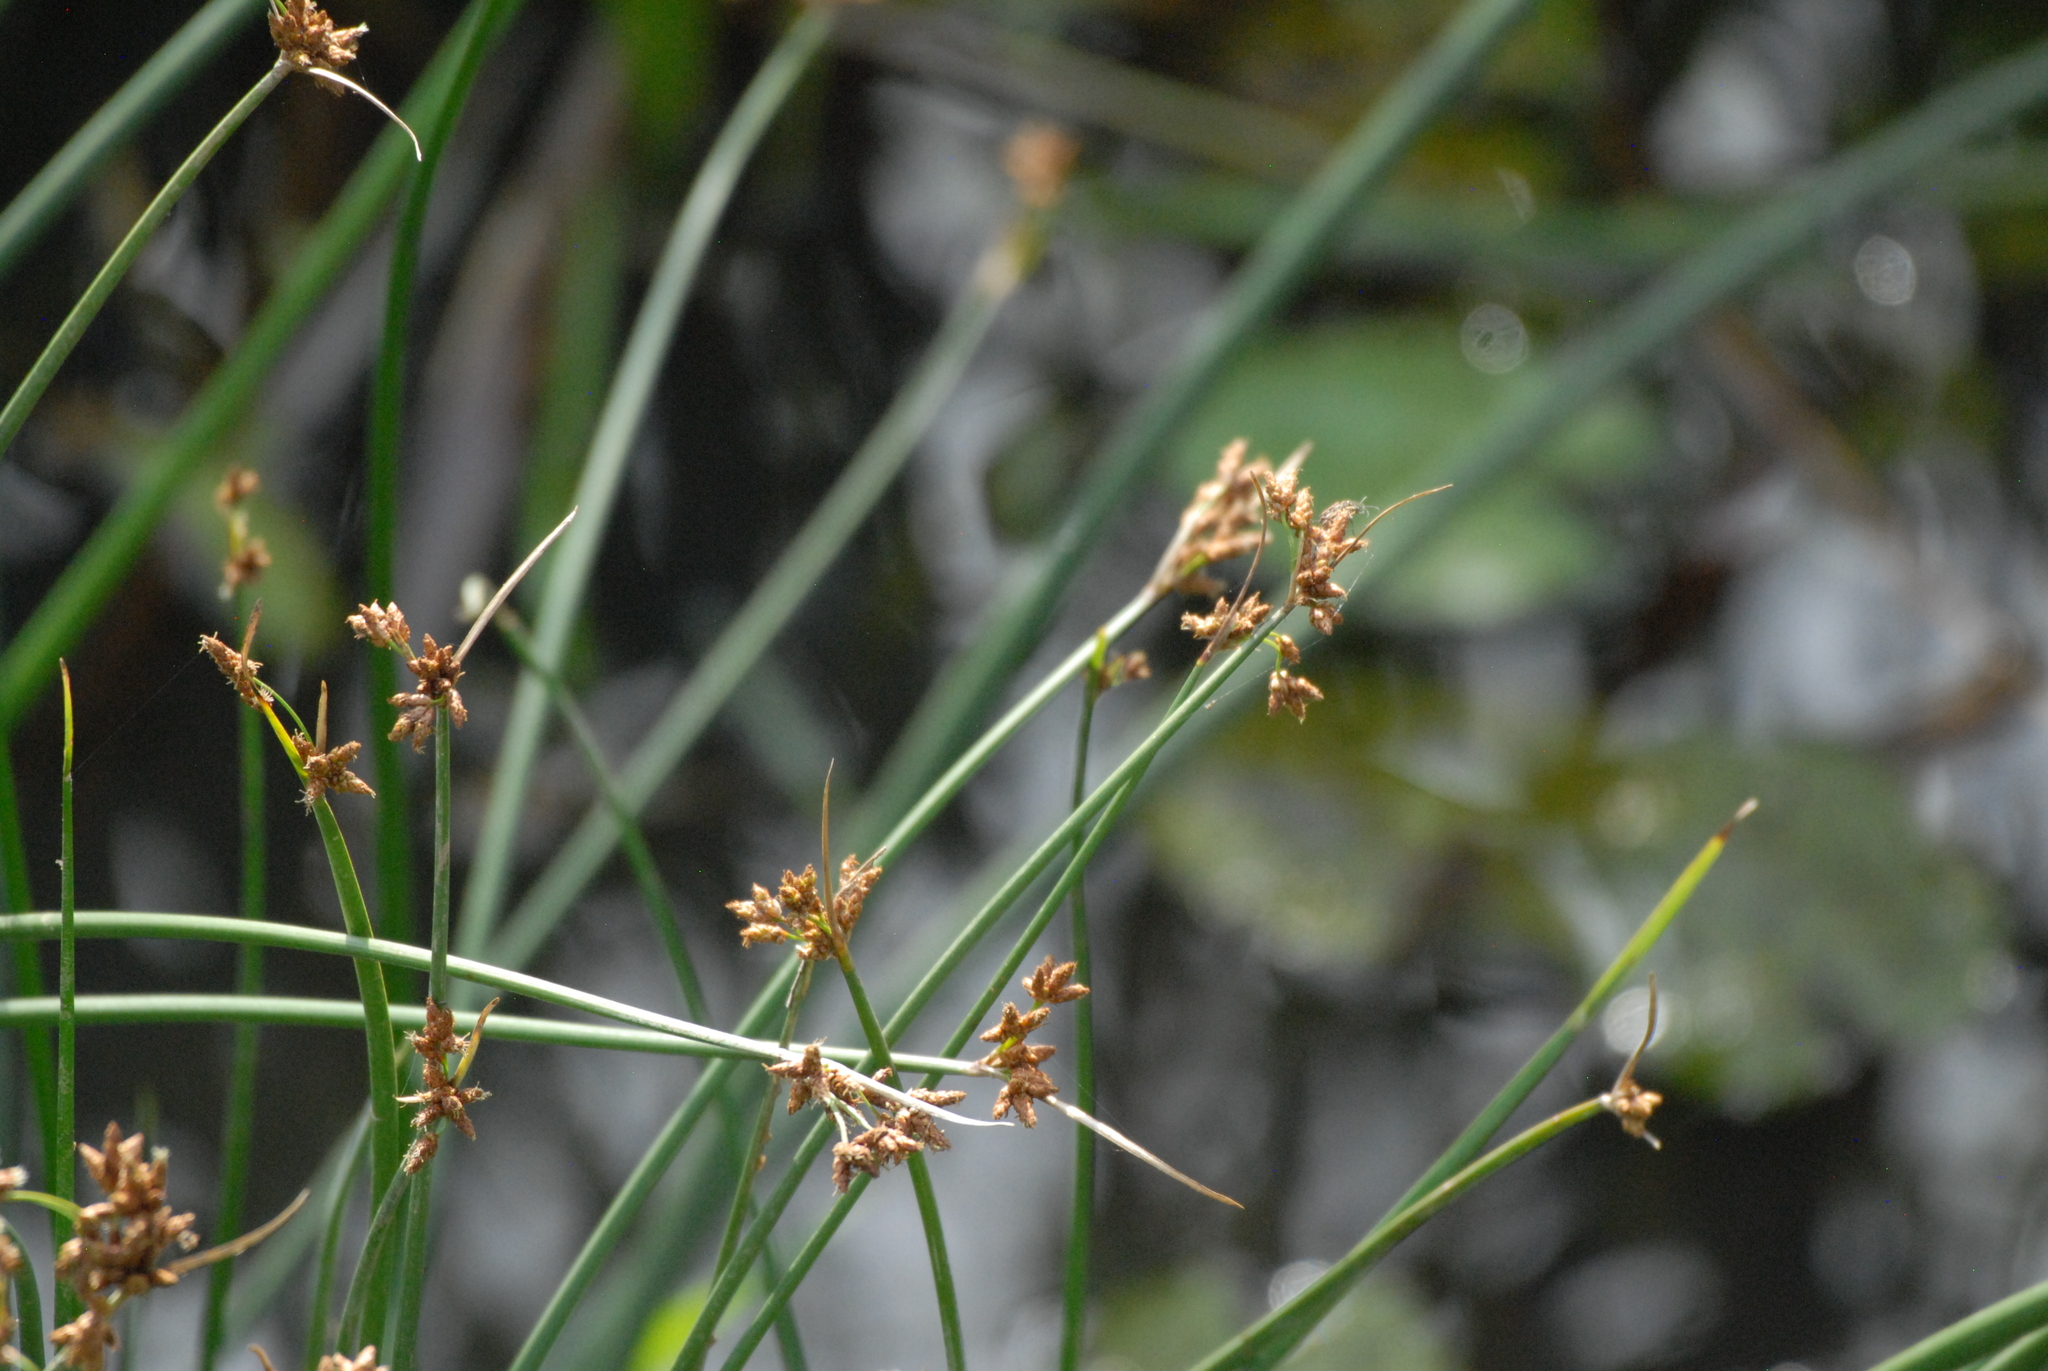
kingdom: Plantae
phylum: Tracheophyta
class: Liliopsida
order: Poales
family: Cyperaceae
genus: Schoenoplectus
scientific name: Schoenoplectus lacustris
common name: Common club-rush
